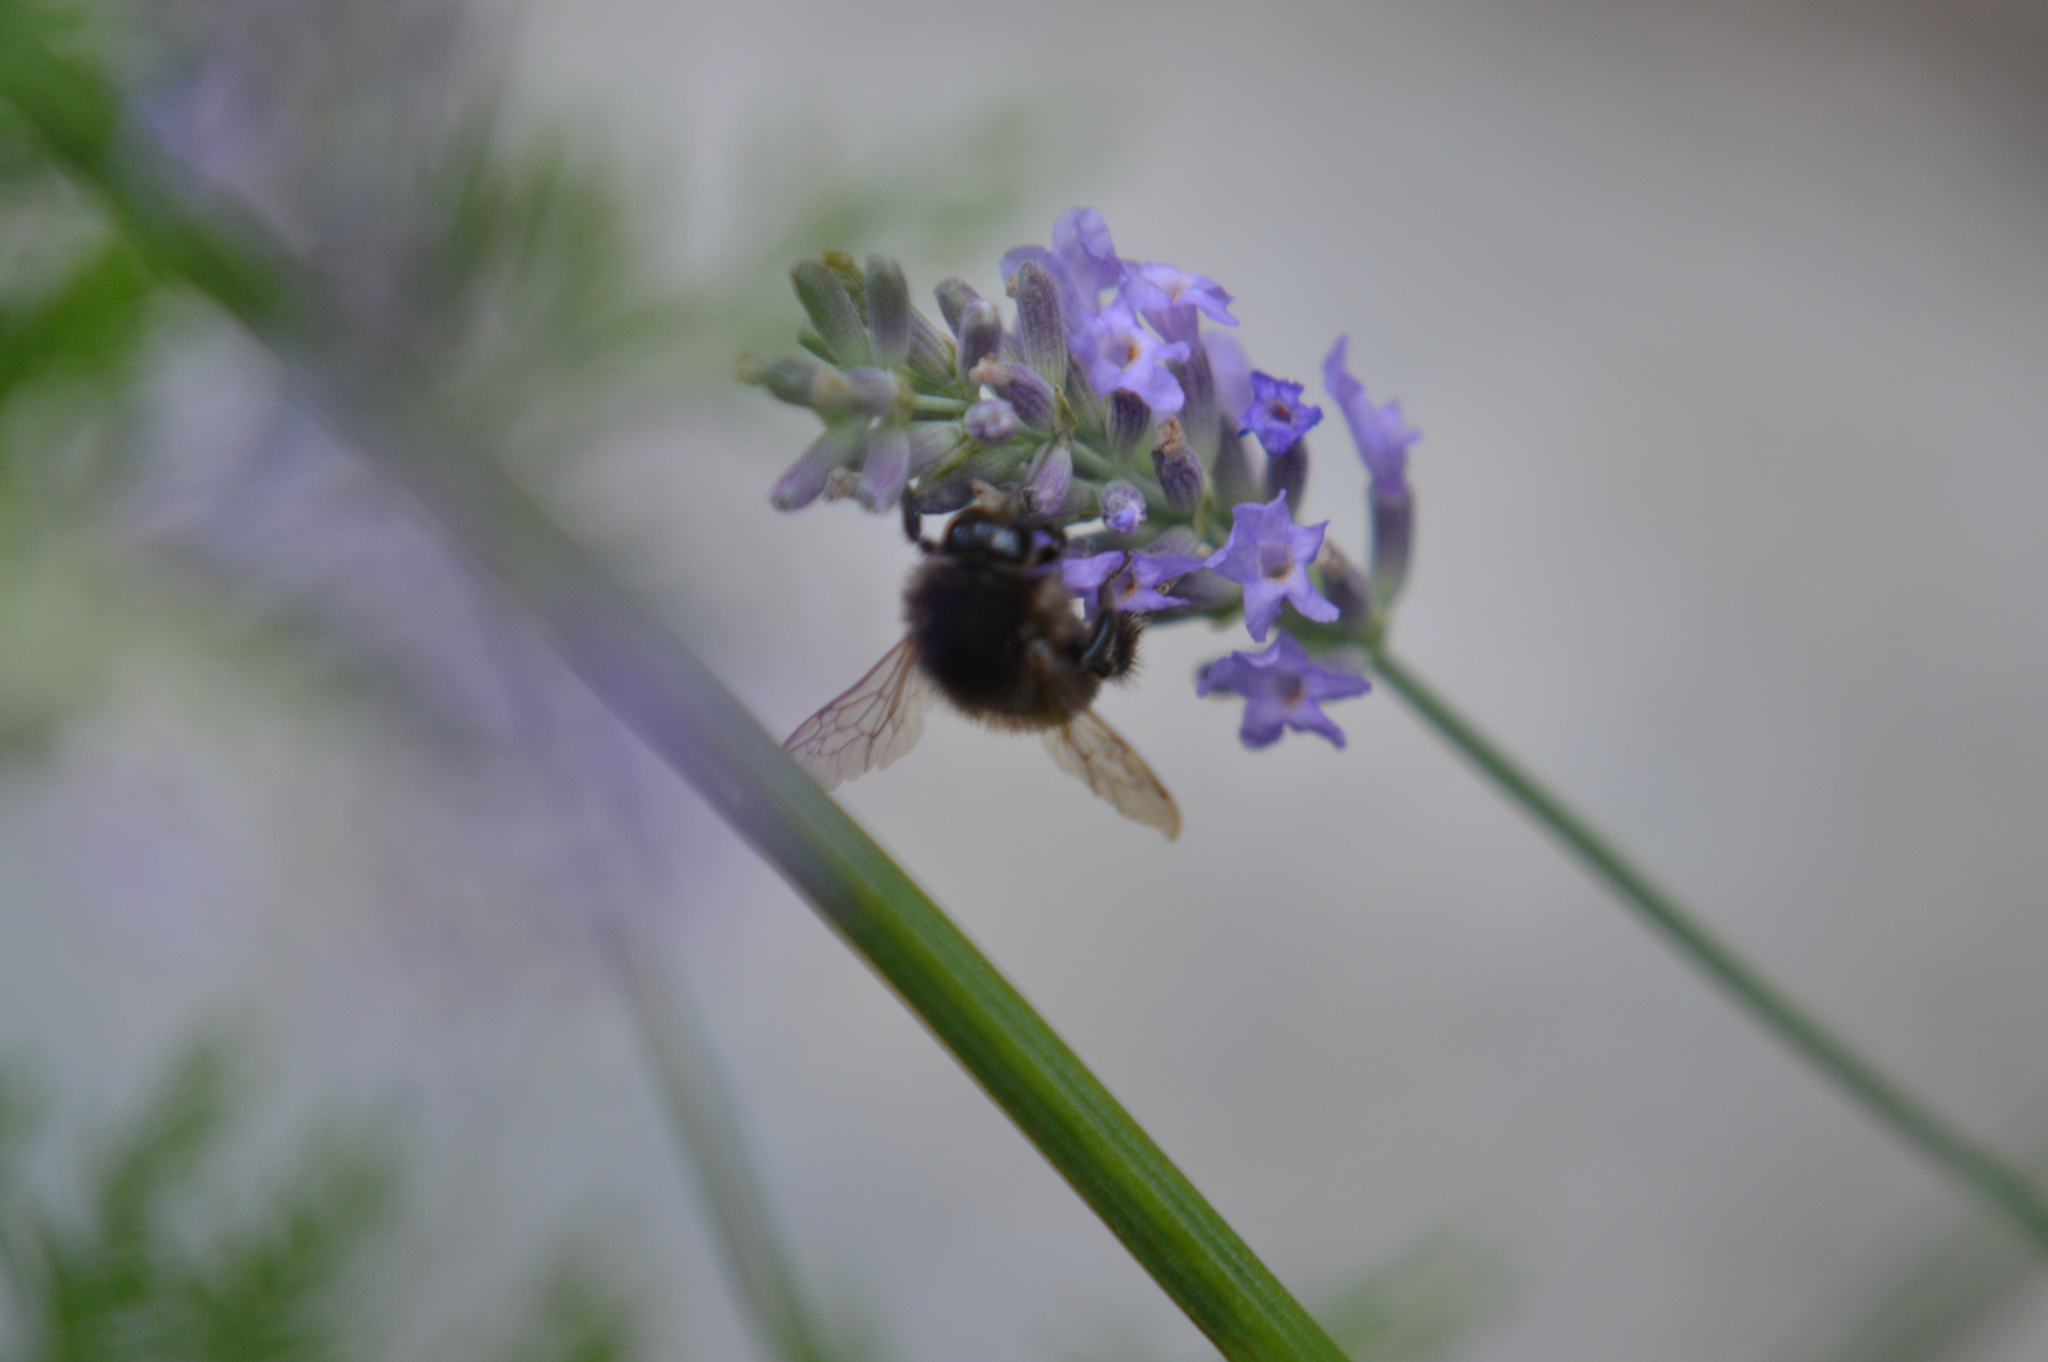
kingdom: Animalia
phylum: Arthropoda
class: Insecta
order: Hymenoptera
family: Apidae
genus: Bombus
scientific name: Bombus humilis
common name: Brown-banded carder-bee
